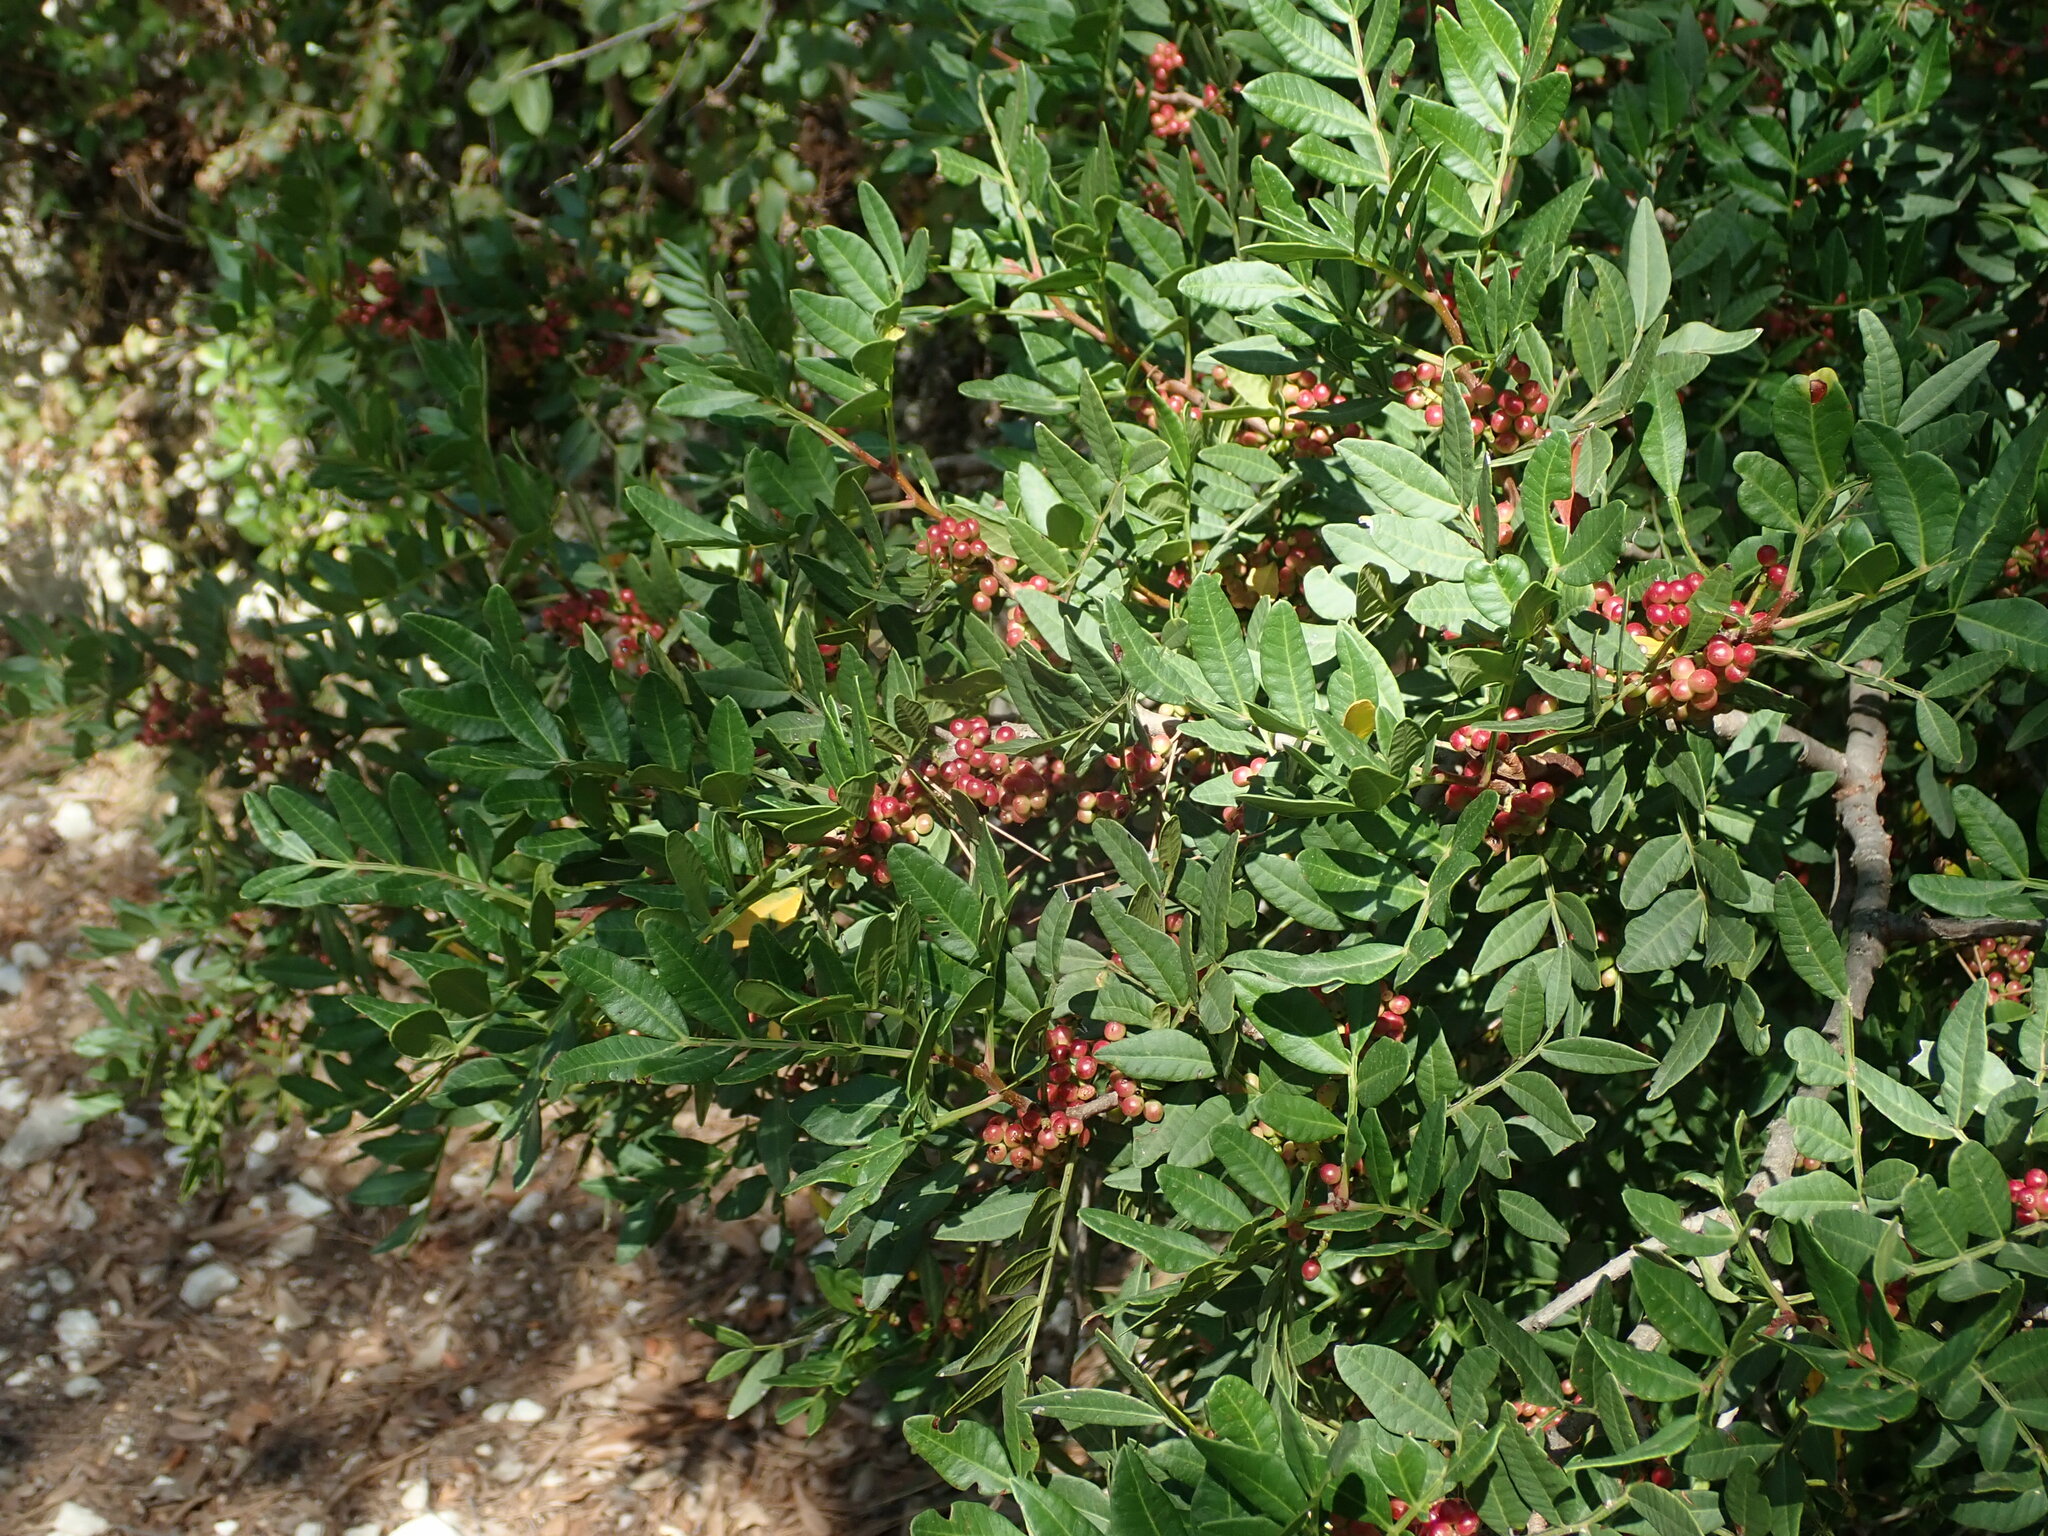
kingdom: Plantae
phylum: Tracheophyta
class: Magnoliopsida
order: Sapindales
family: Anacardiaceae
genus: Pistacia
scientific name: Pistacia lentiscus
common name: Lentisk
